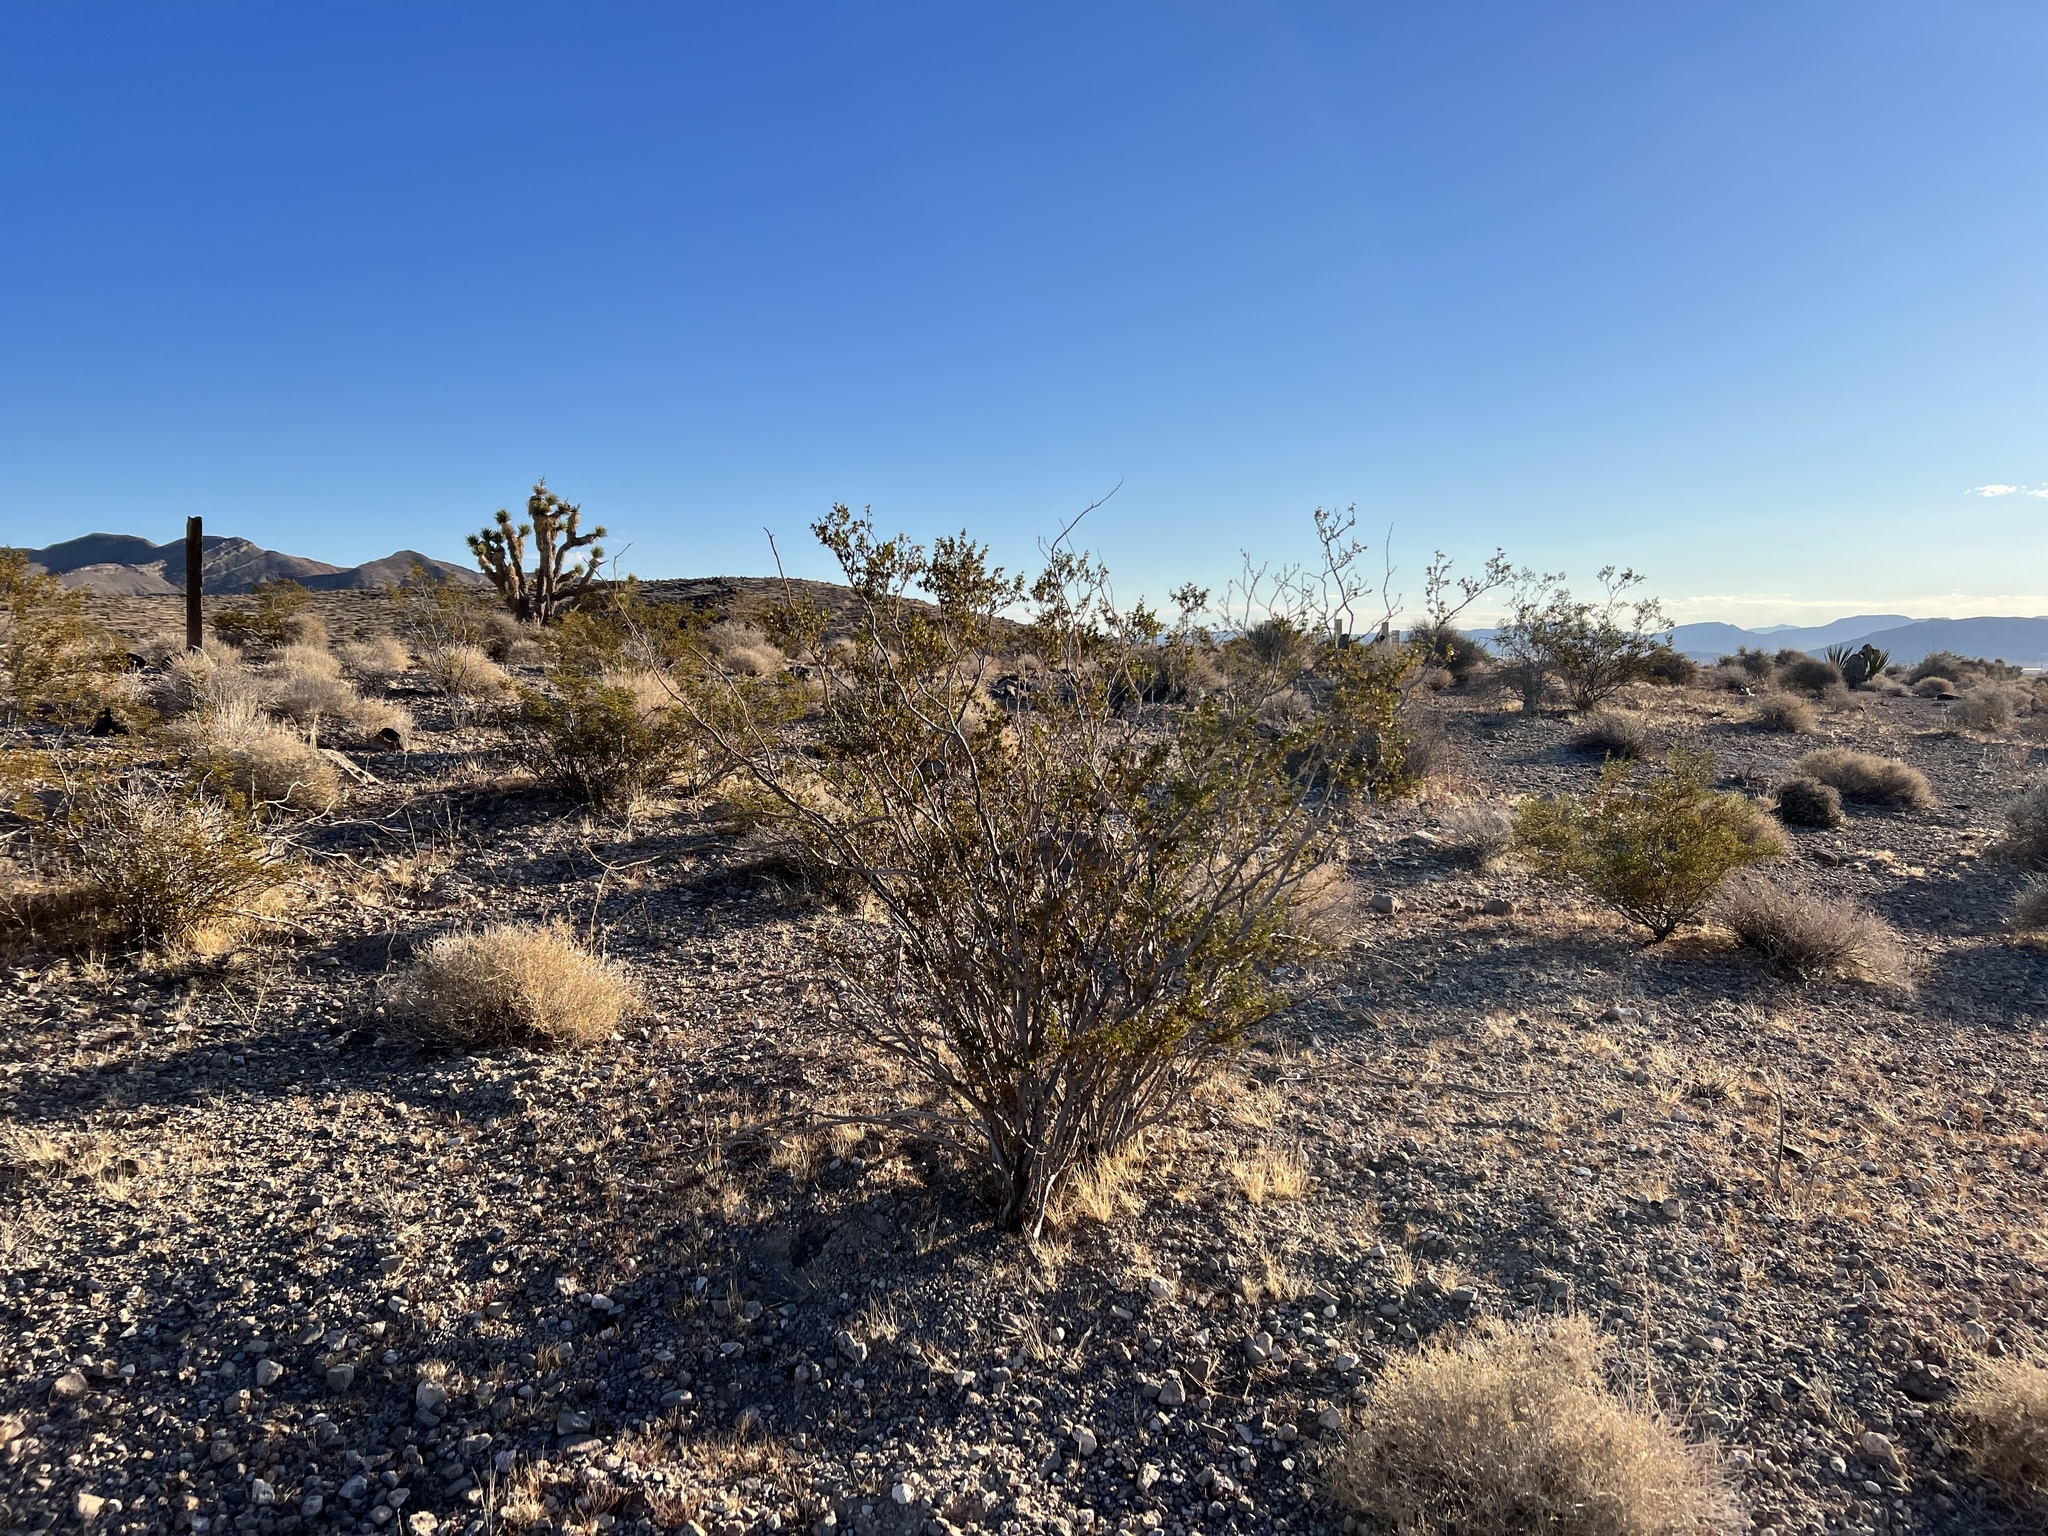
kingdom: Plantae
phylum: Tracheophyta
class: Magnoliopsida
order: Zygophyllales
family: Zygophyllaceae
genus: Larrea
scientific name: Larrea tridentata
